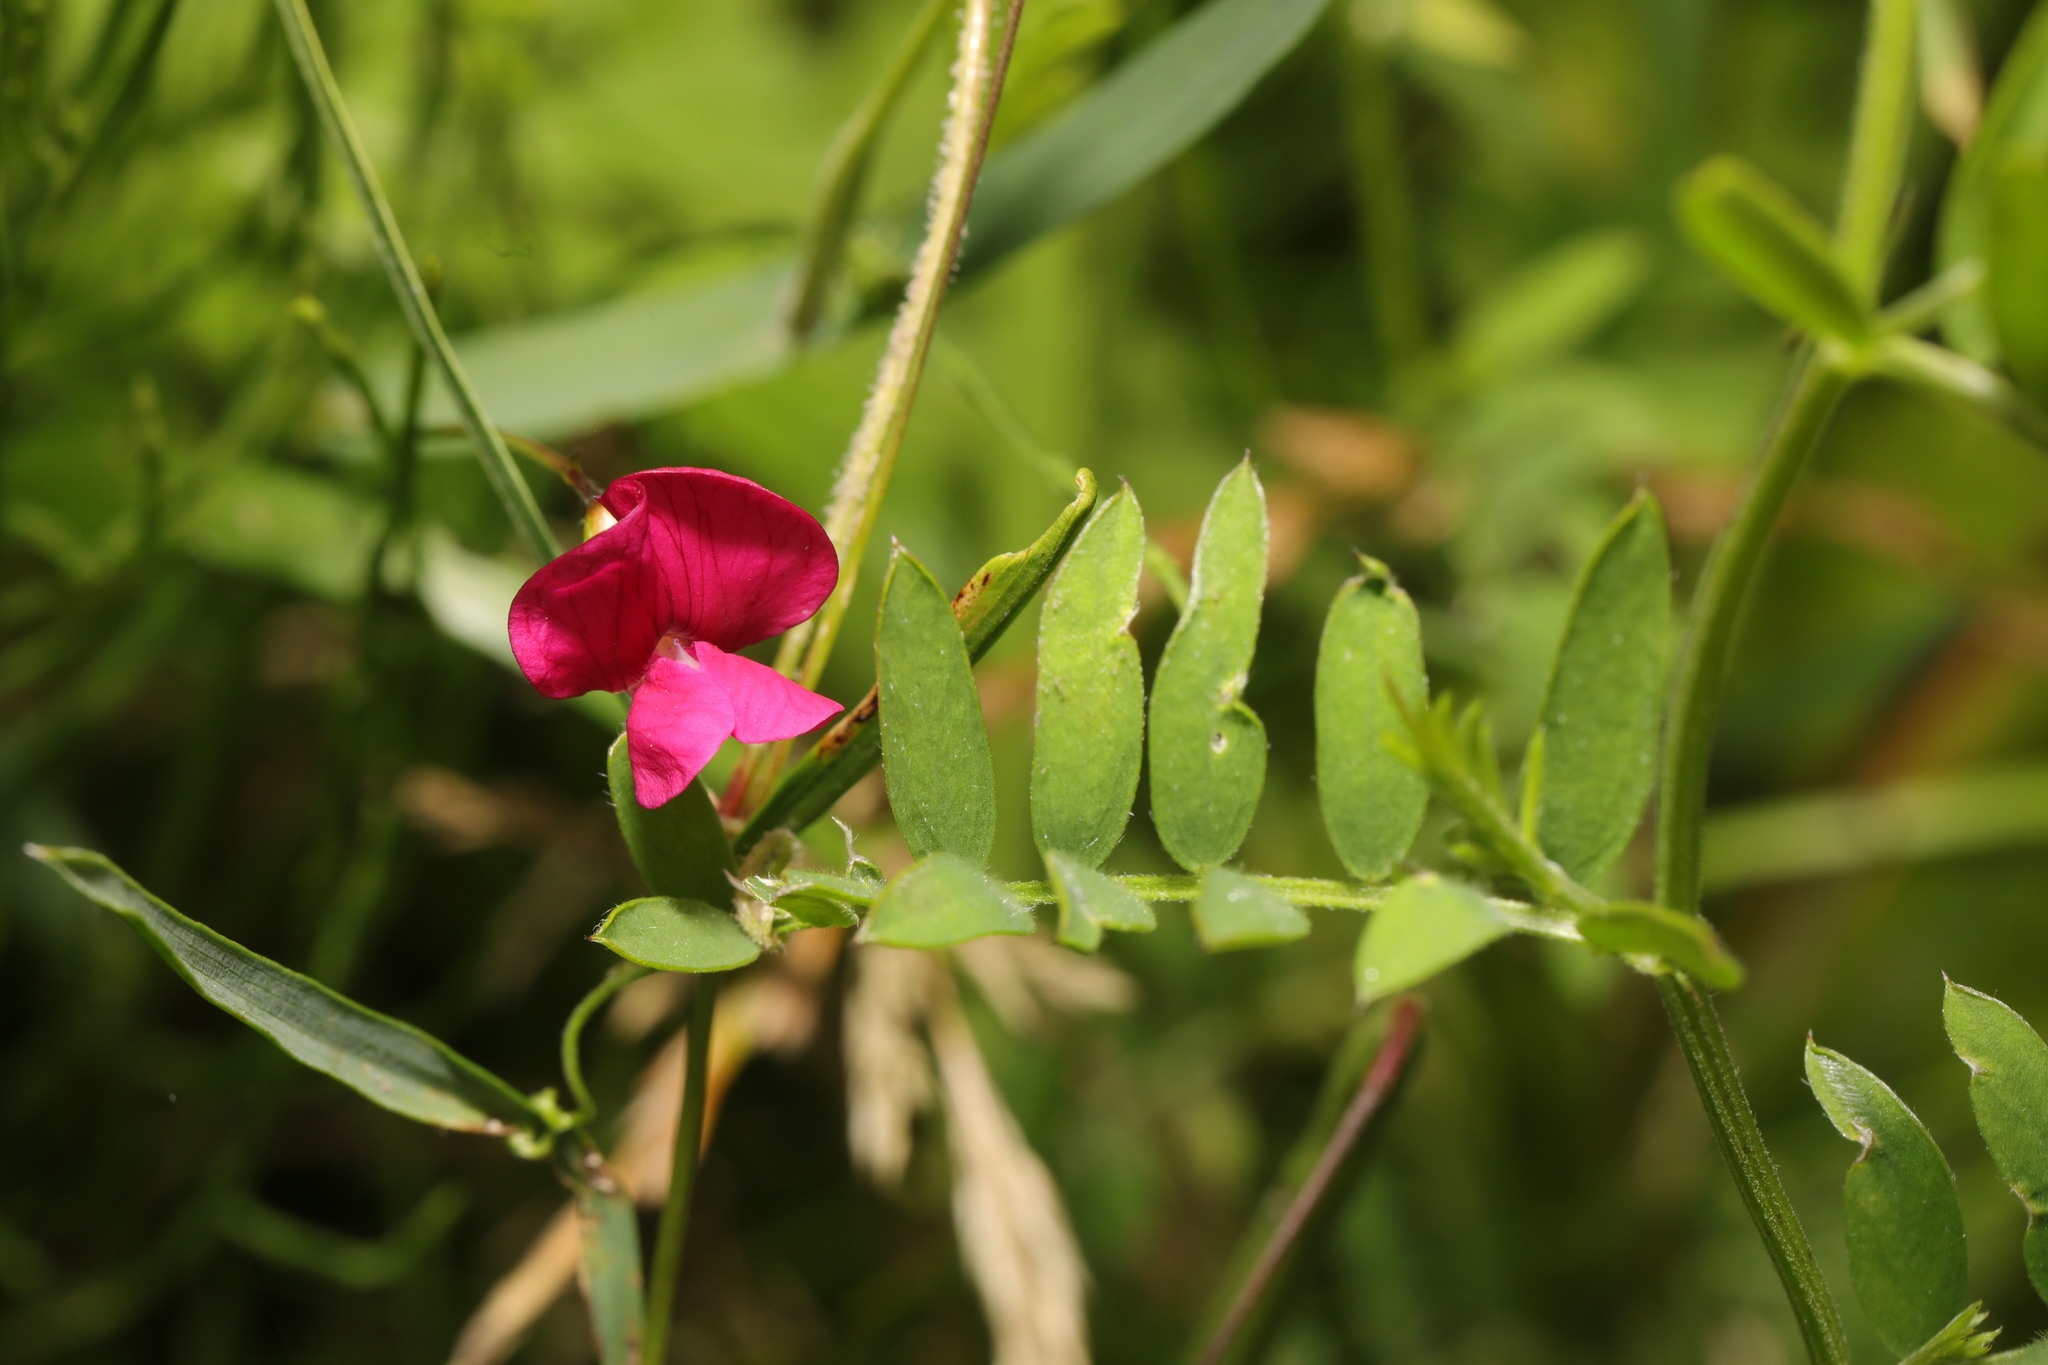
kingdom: Plantae
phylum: Tracheophyta
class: Magnoliopsida
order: Fabales
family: Fabaceae
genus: Vicia
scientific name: Vicia sativa
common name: Garden vetch
